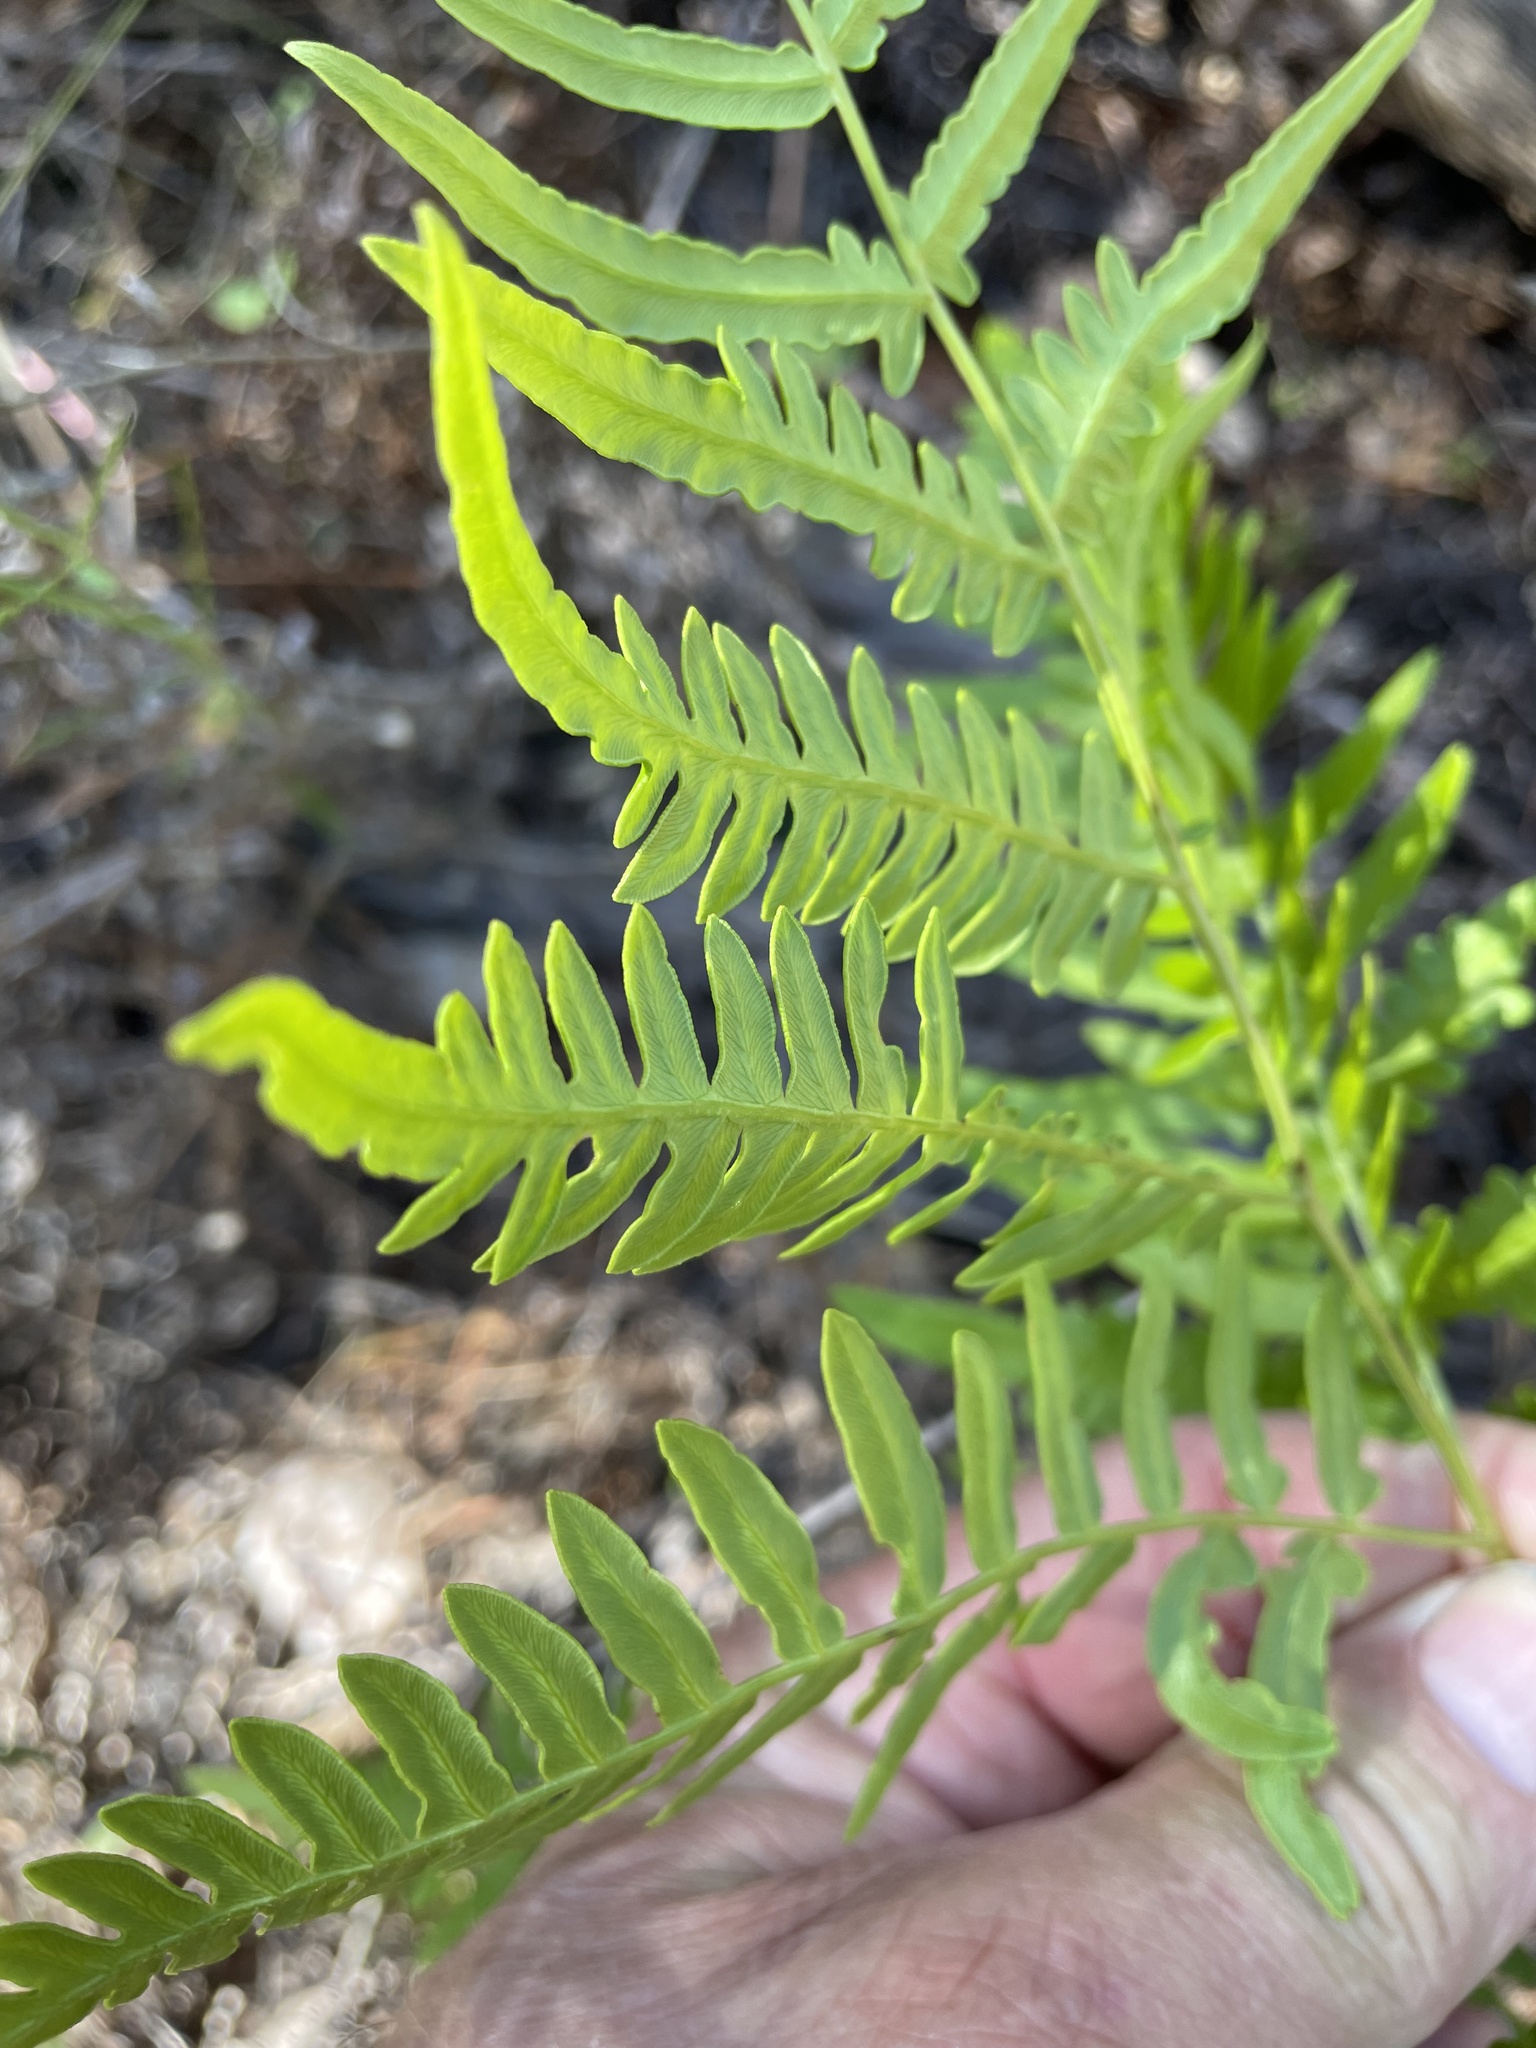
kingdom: Plantae
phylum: Tracheophyta
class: Polypodiopsida
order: Polypodiales
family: Dennstaedtiaceae
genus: Pteridium
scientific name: Pteridium aquilinum
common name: Bracken
